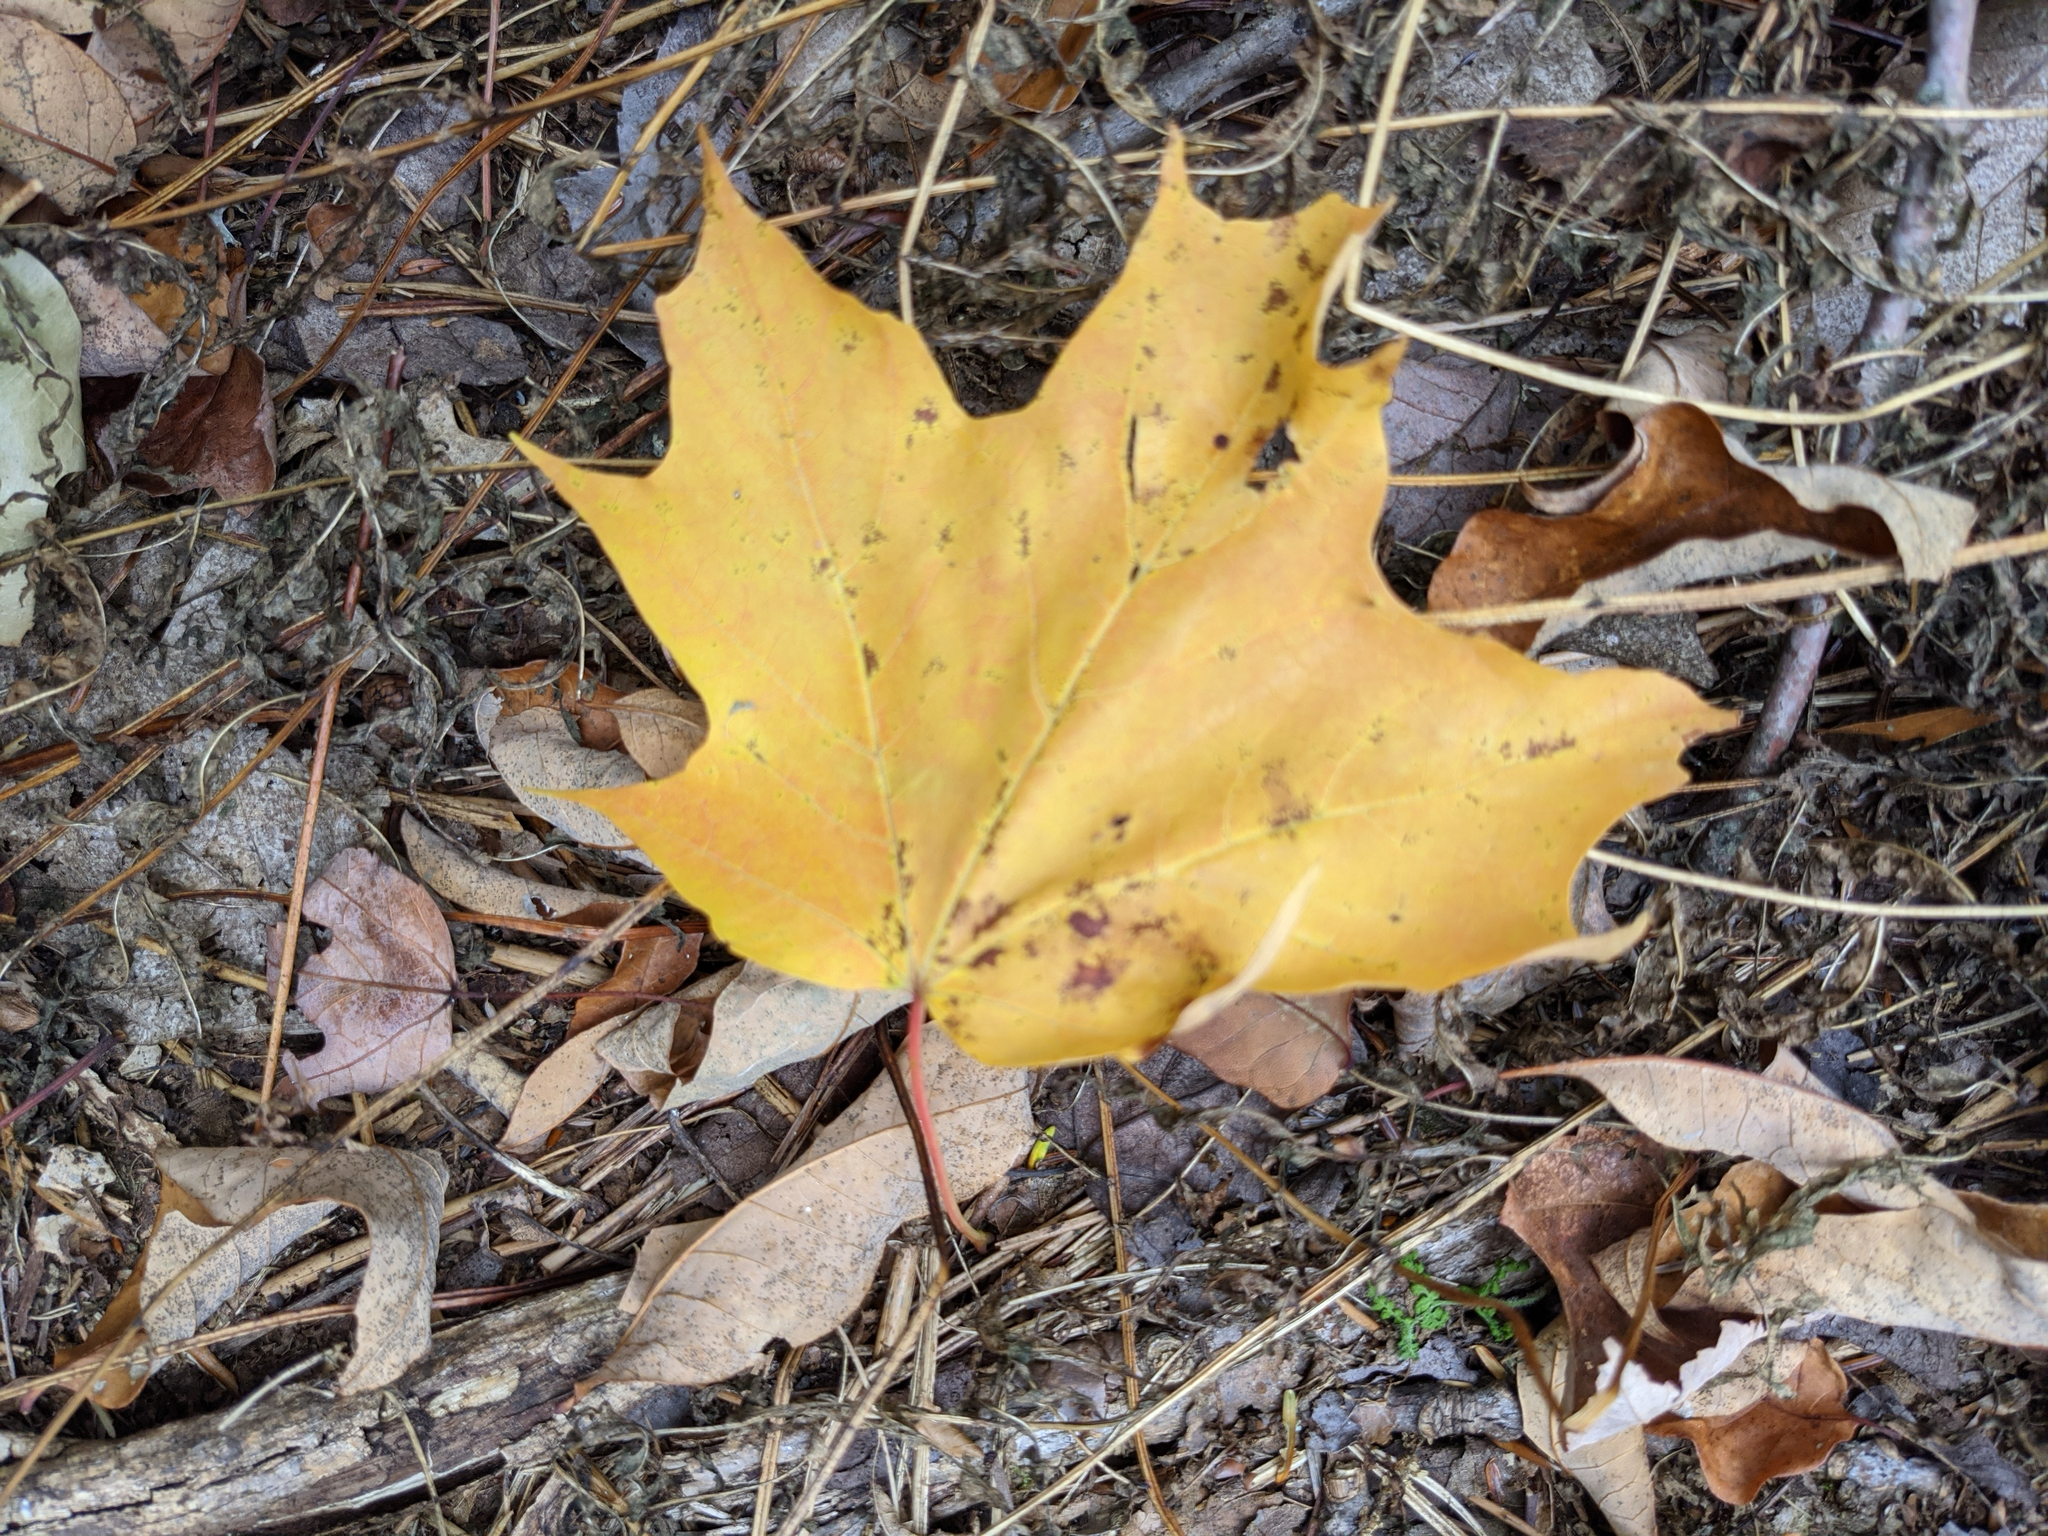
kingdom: Plantae
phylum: Tracheophyta
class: Magnoliopsida
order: Sapindales
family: Sapindaceae
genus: Acer
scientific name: Acer saccharum
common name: Sugar maple
